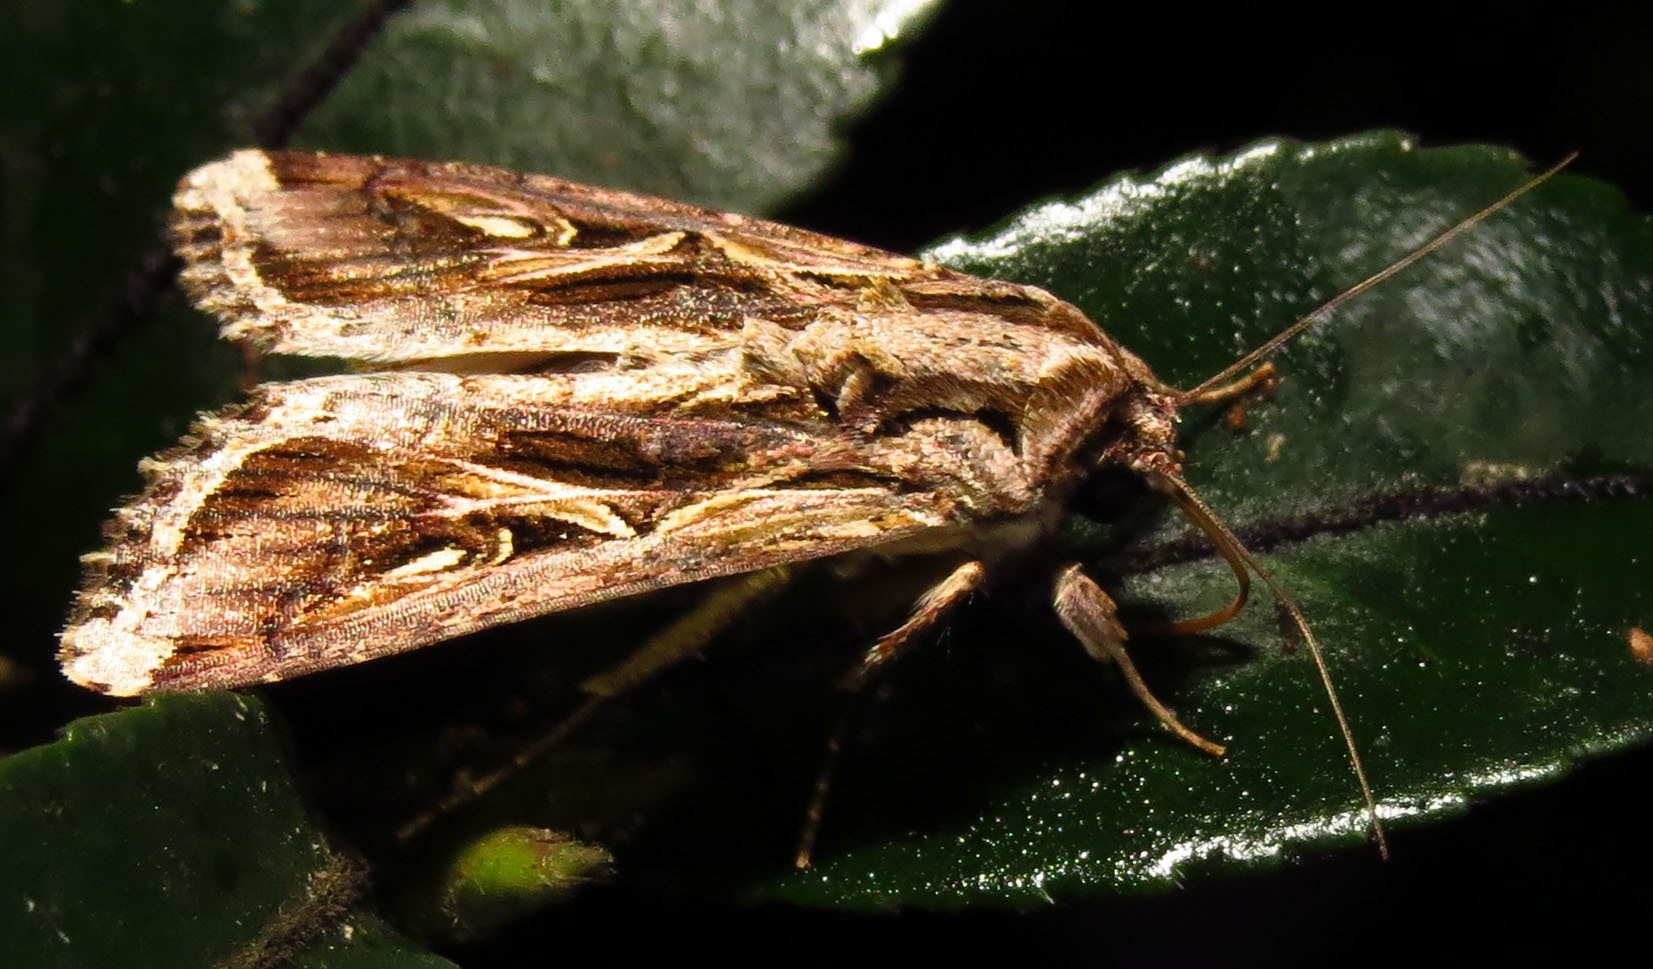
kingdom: Animalia
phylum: Arthropoda
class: Insecta
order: Lepidoptera
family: Noctuidae
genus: Spodoptera
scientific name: Spodoptera dolichos
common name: Sweetpotato armyworm
